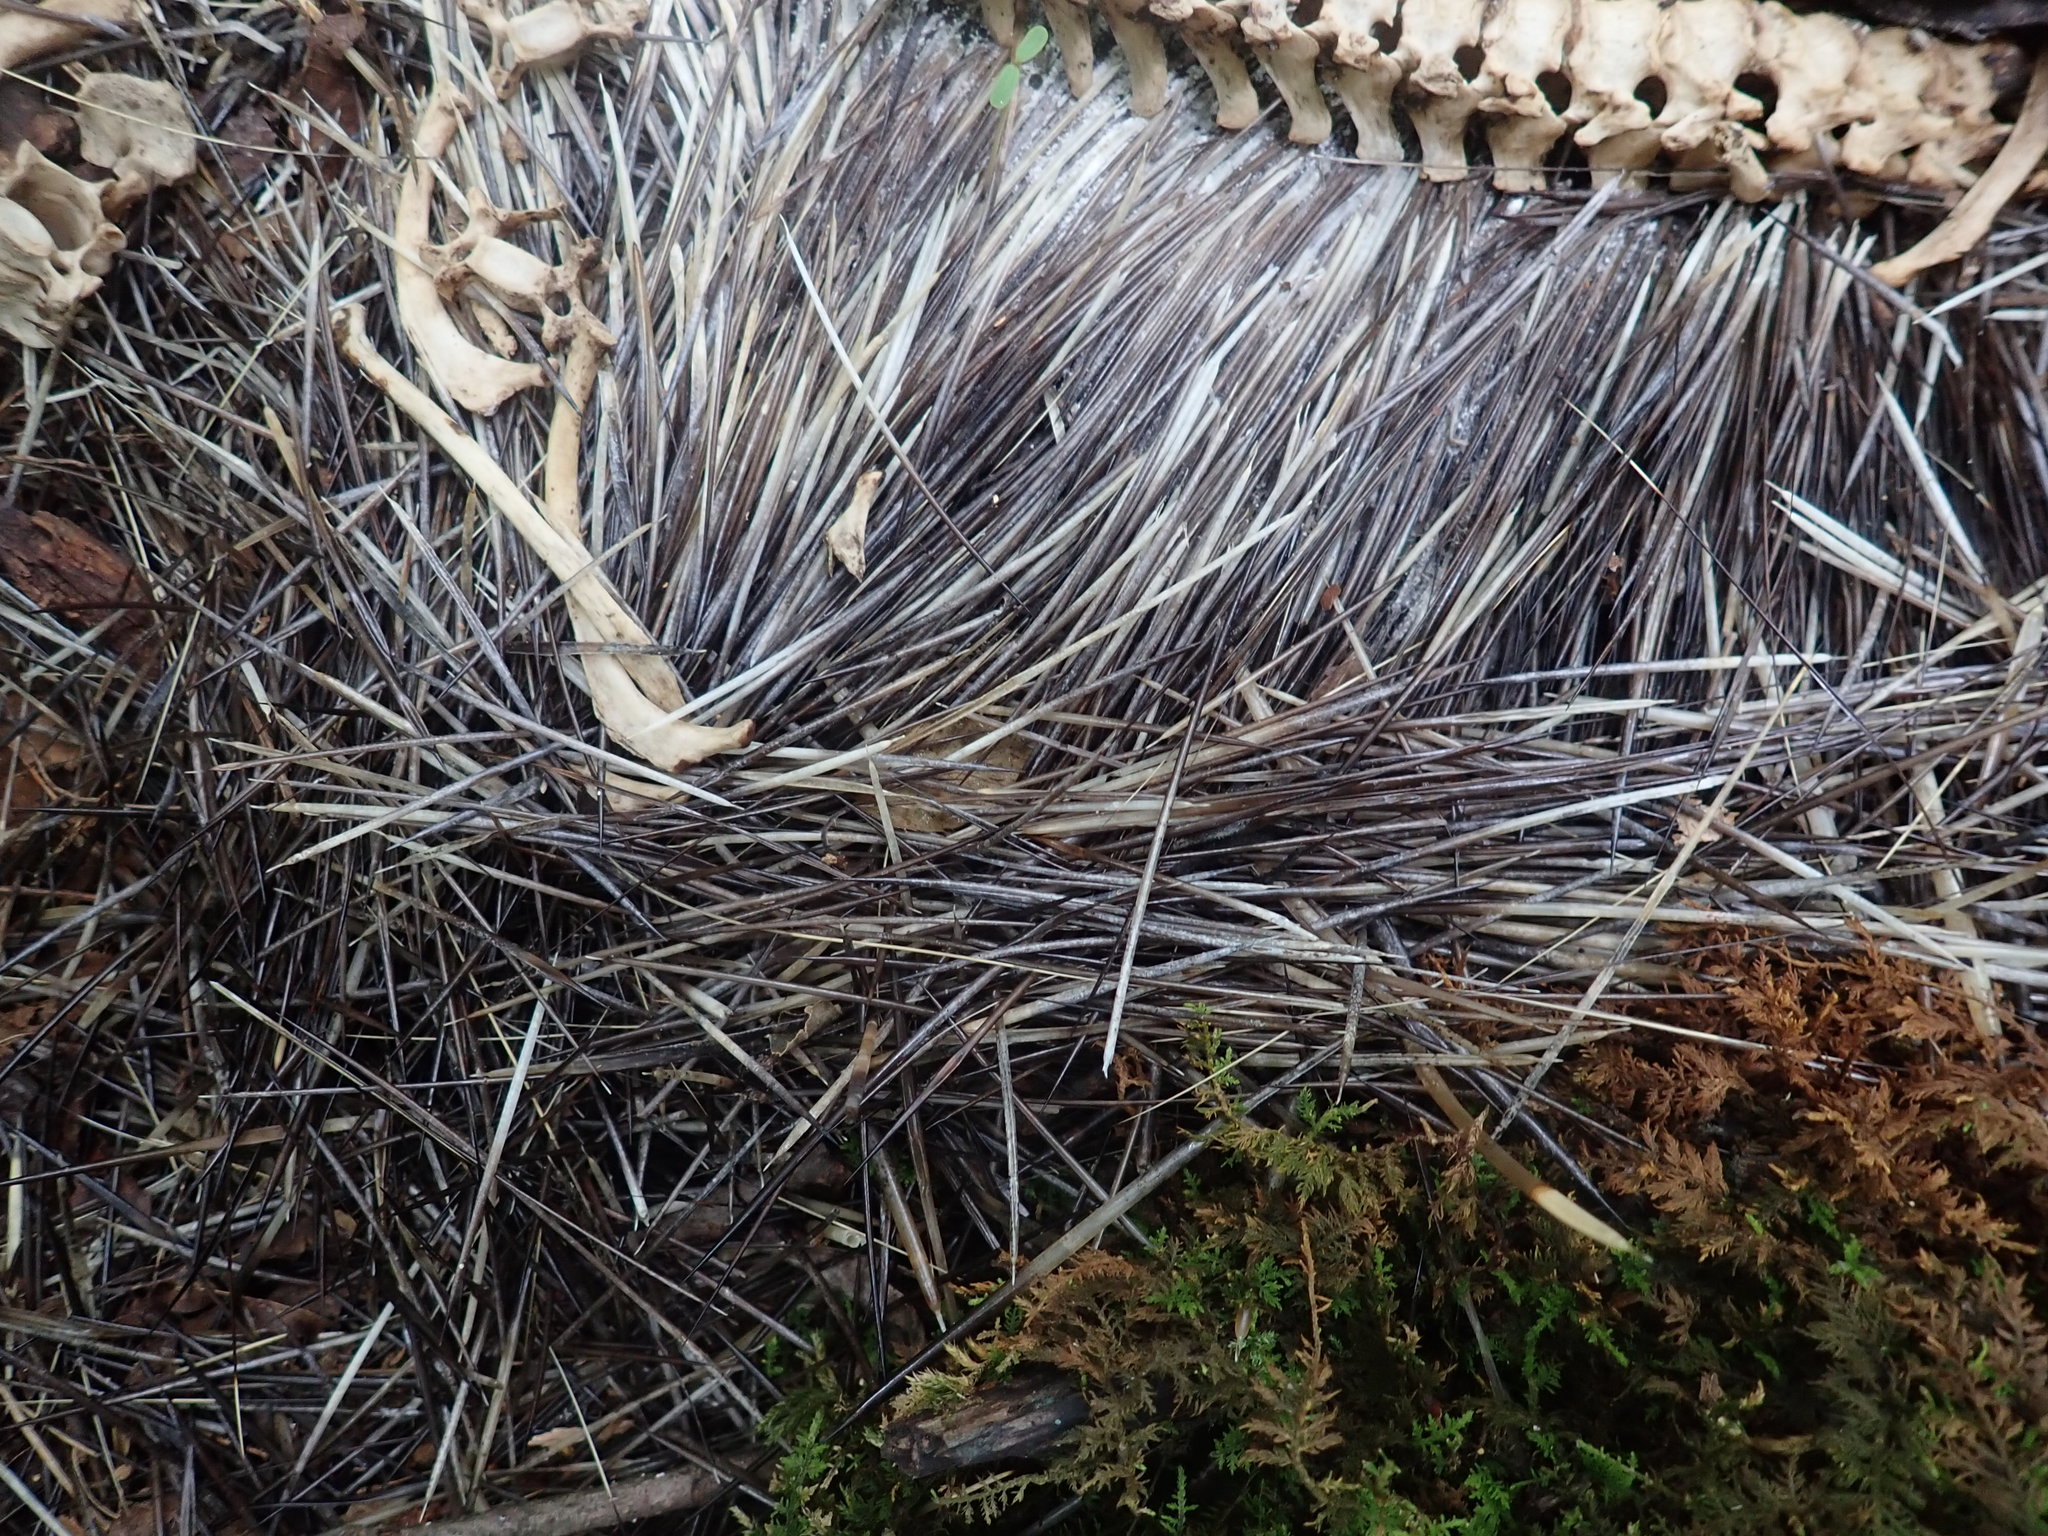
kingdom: Animalia
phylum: Chordata
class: Mammalia
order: Rodentia
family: Erethizontidae
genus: Erethizon
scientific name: Erethizon dorsatus
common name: North american porcupine
